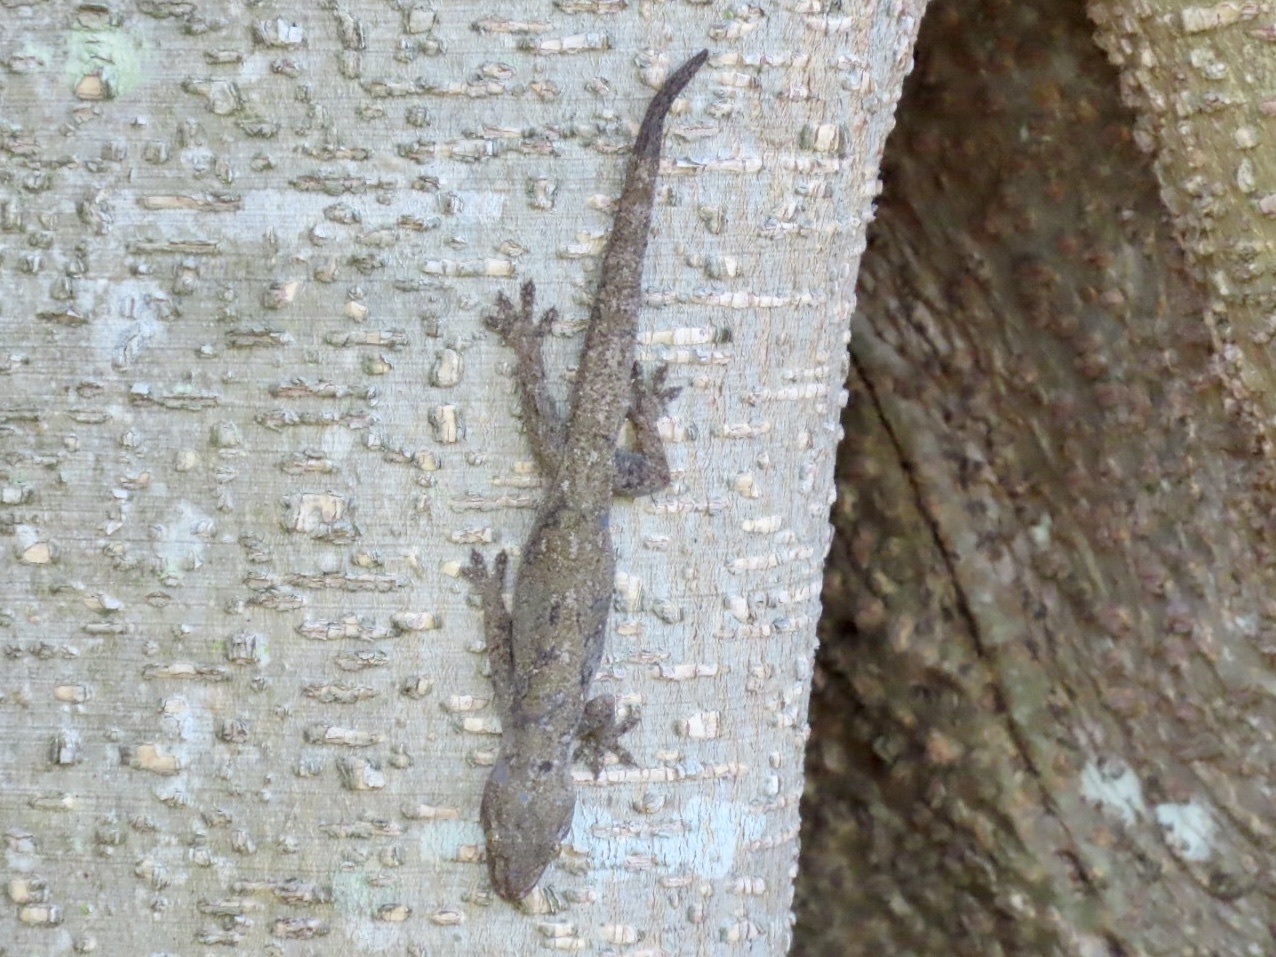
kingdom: Animalia
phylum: Chordata
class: Squamata
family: Gekkonidae
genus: Gekko
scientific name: Gekko chinensis
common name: Gray's chinese gecko
